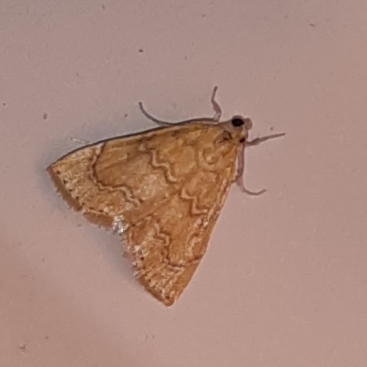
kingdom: Animalia
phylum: Arthropoda
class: Insecta
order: Lepidoptera
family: Crambidae
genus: Glaphyria
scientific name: Glaphyria sesquistrialis
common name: White-roped glaphyria
